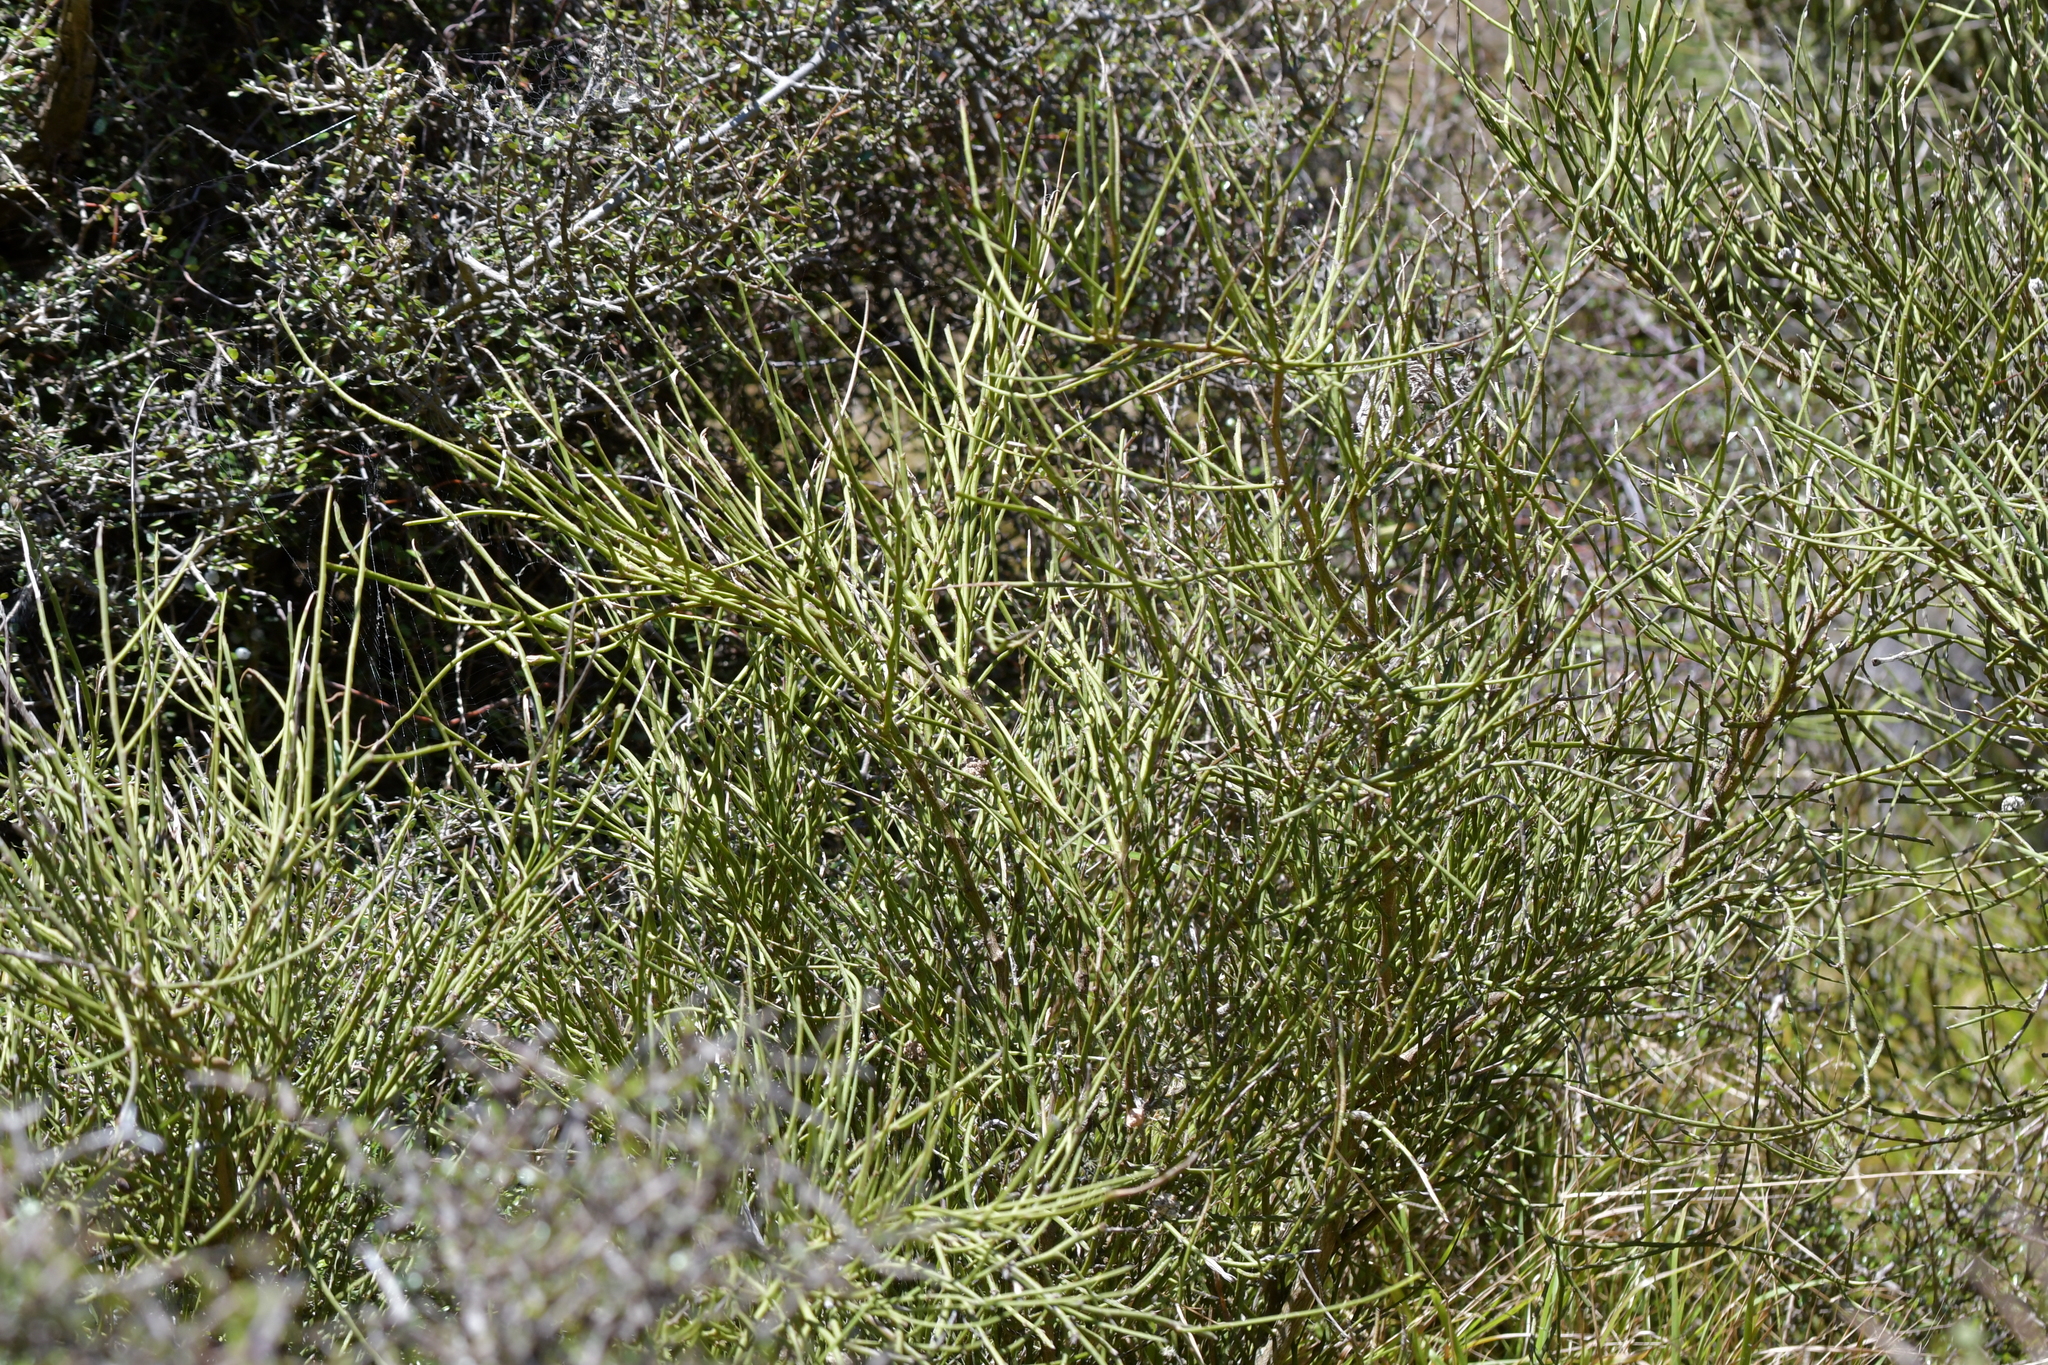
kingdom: Plantae
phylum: Tracheophyta
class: Magnoliopsida
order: Fabales
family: Fabaceae
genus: Carmichaelia
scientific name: Carmichaelia australis
